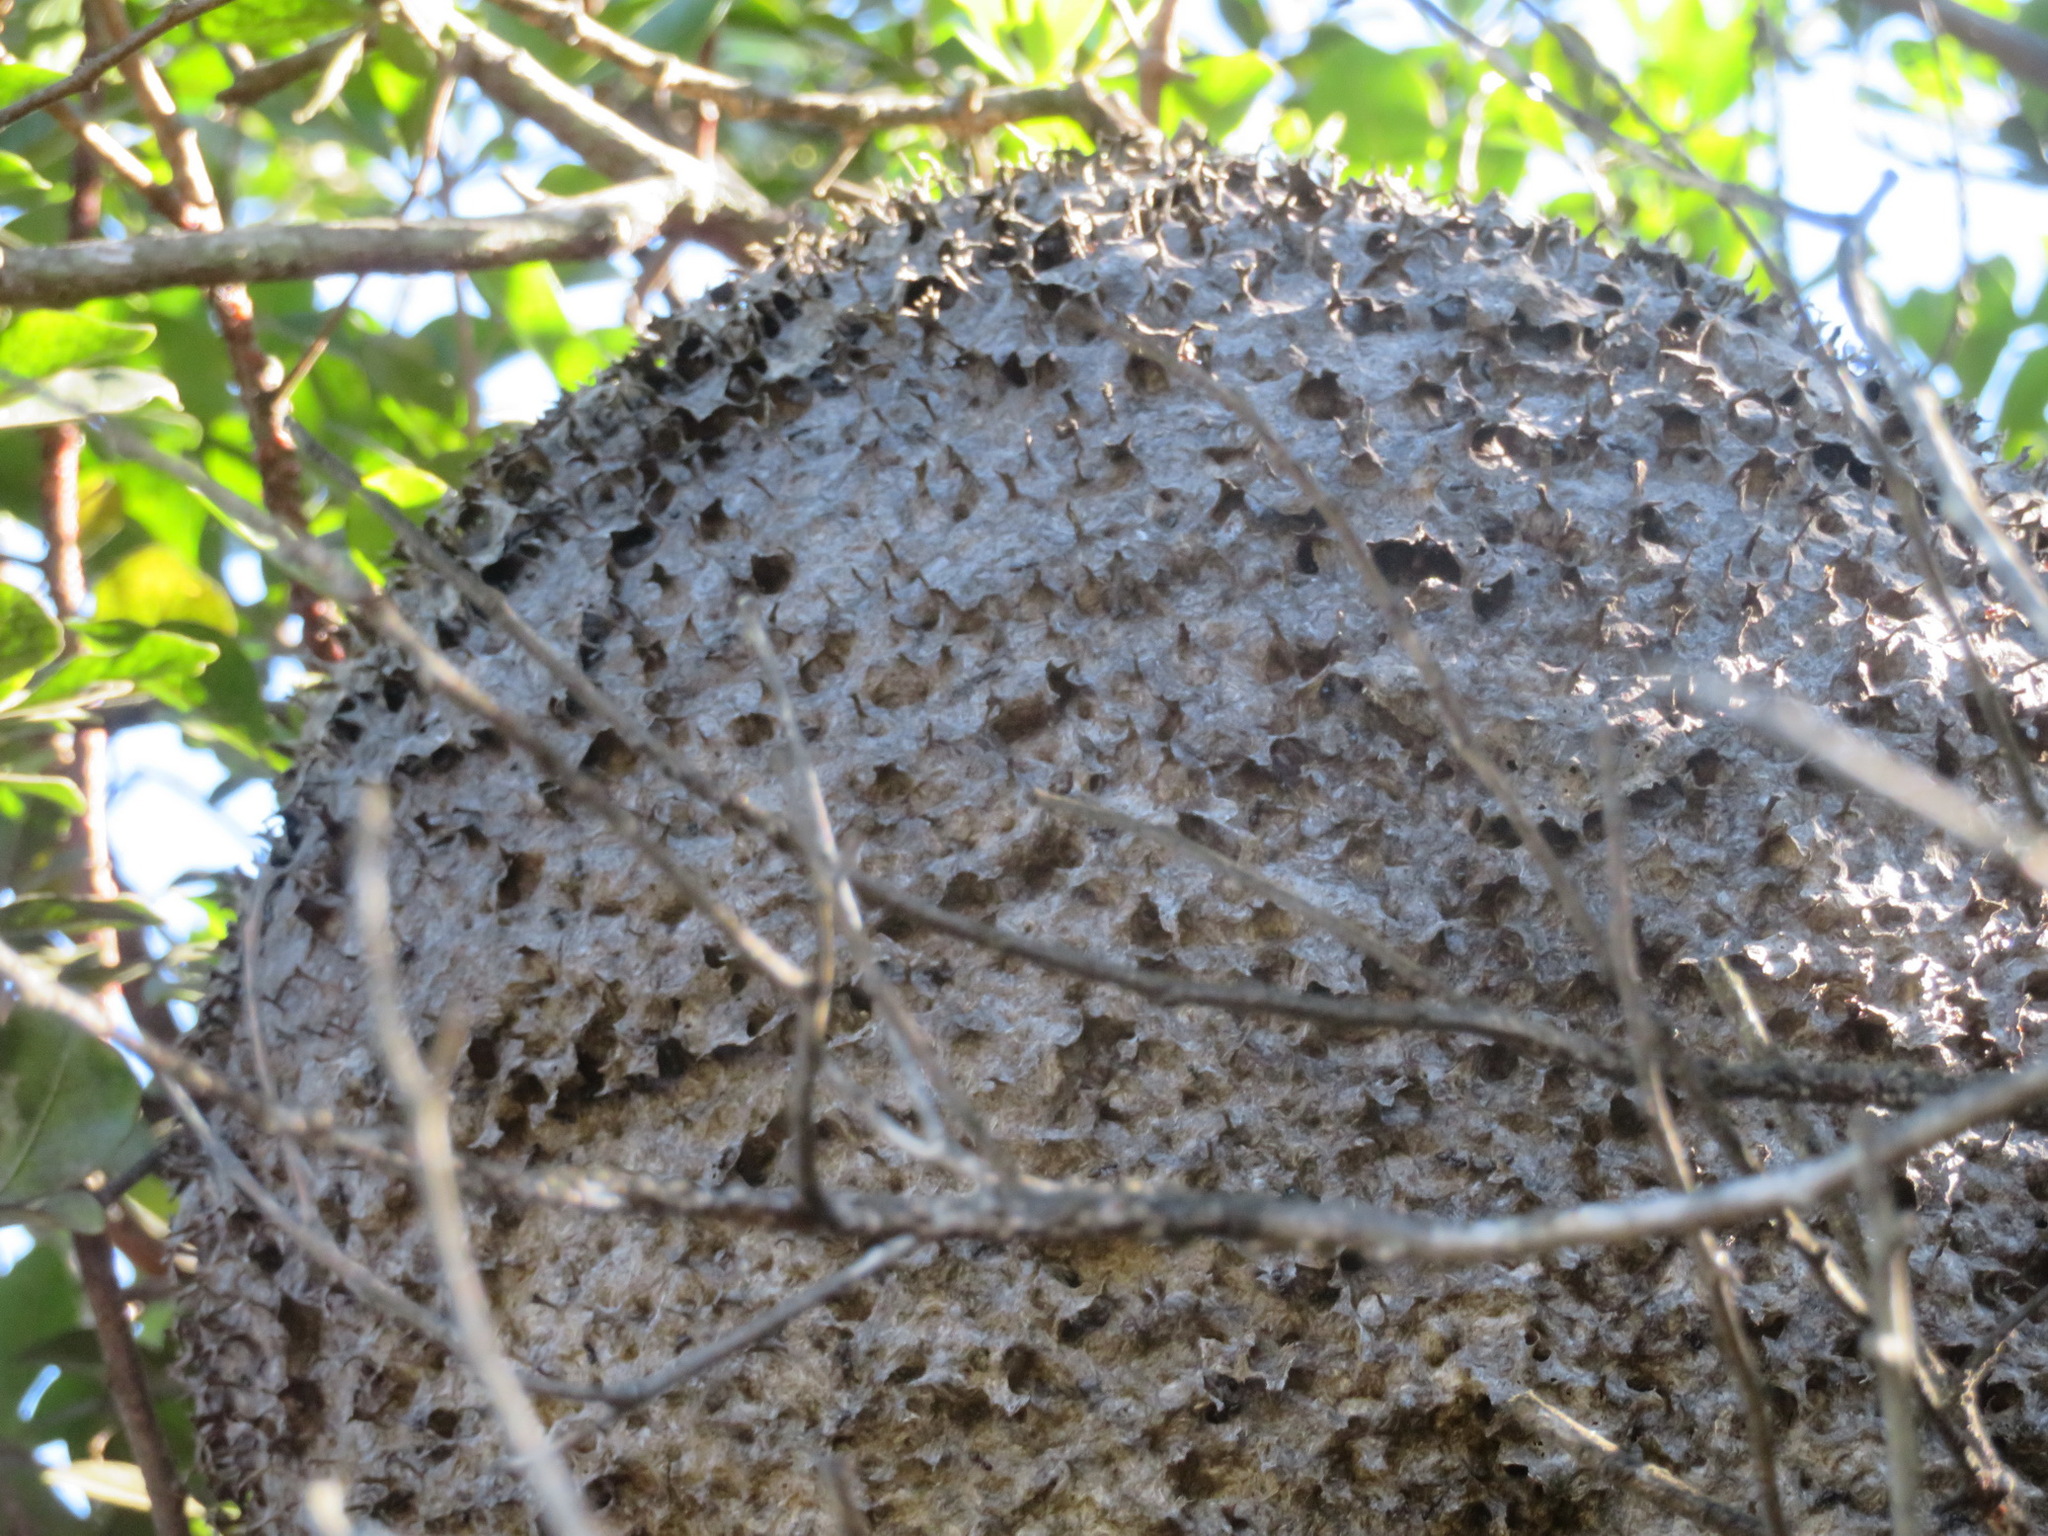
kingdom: Animalia
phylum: Arthropoda
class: Insecta
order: Hymenoptera
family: Formicidae
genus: Crematogaster
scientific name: Crematogaster peringueyi
